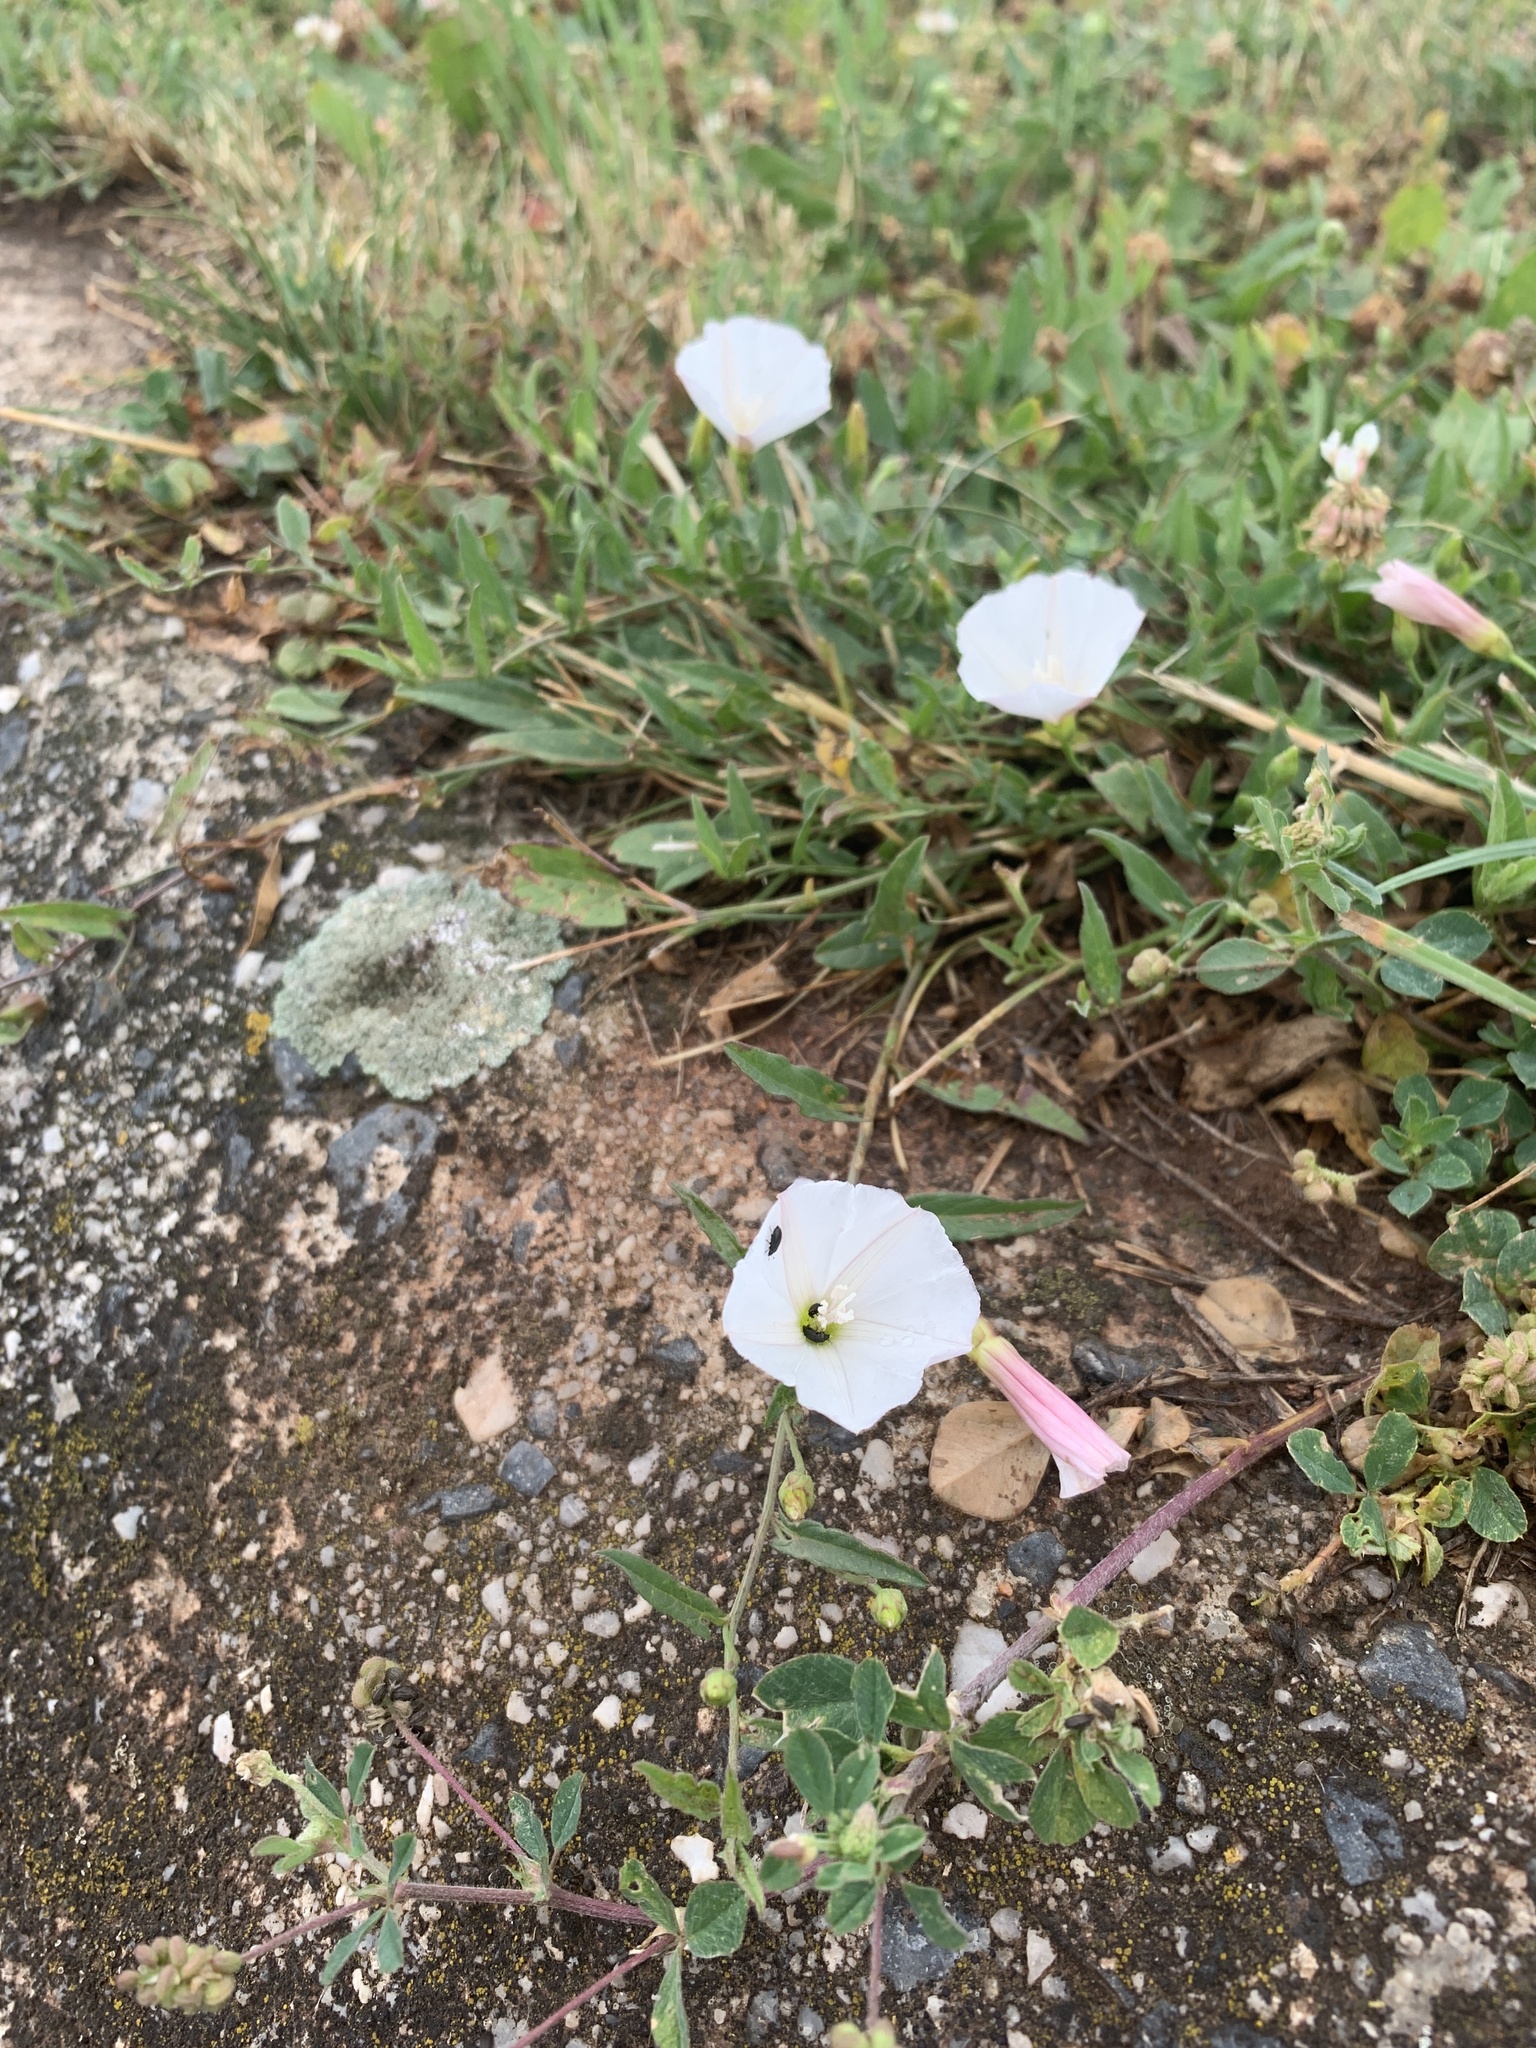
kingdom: Plantae
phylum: Tracheophyta
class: Magnoliopsida
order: Solanales
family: Convolvulaceae
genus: Convolvulus
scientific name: Convolvulus arvensis
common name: Field bindweed
